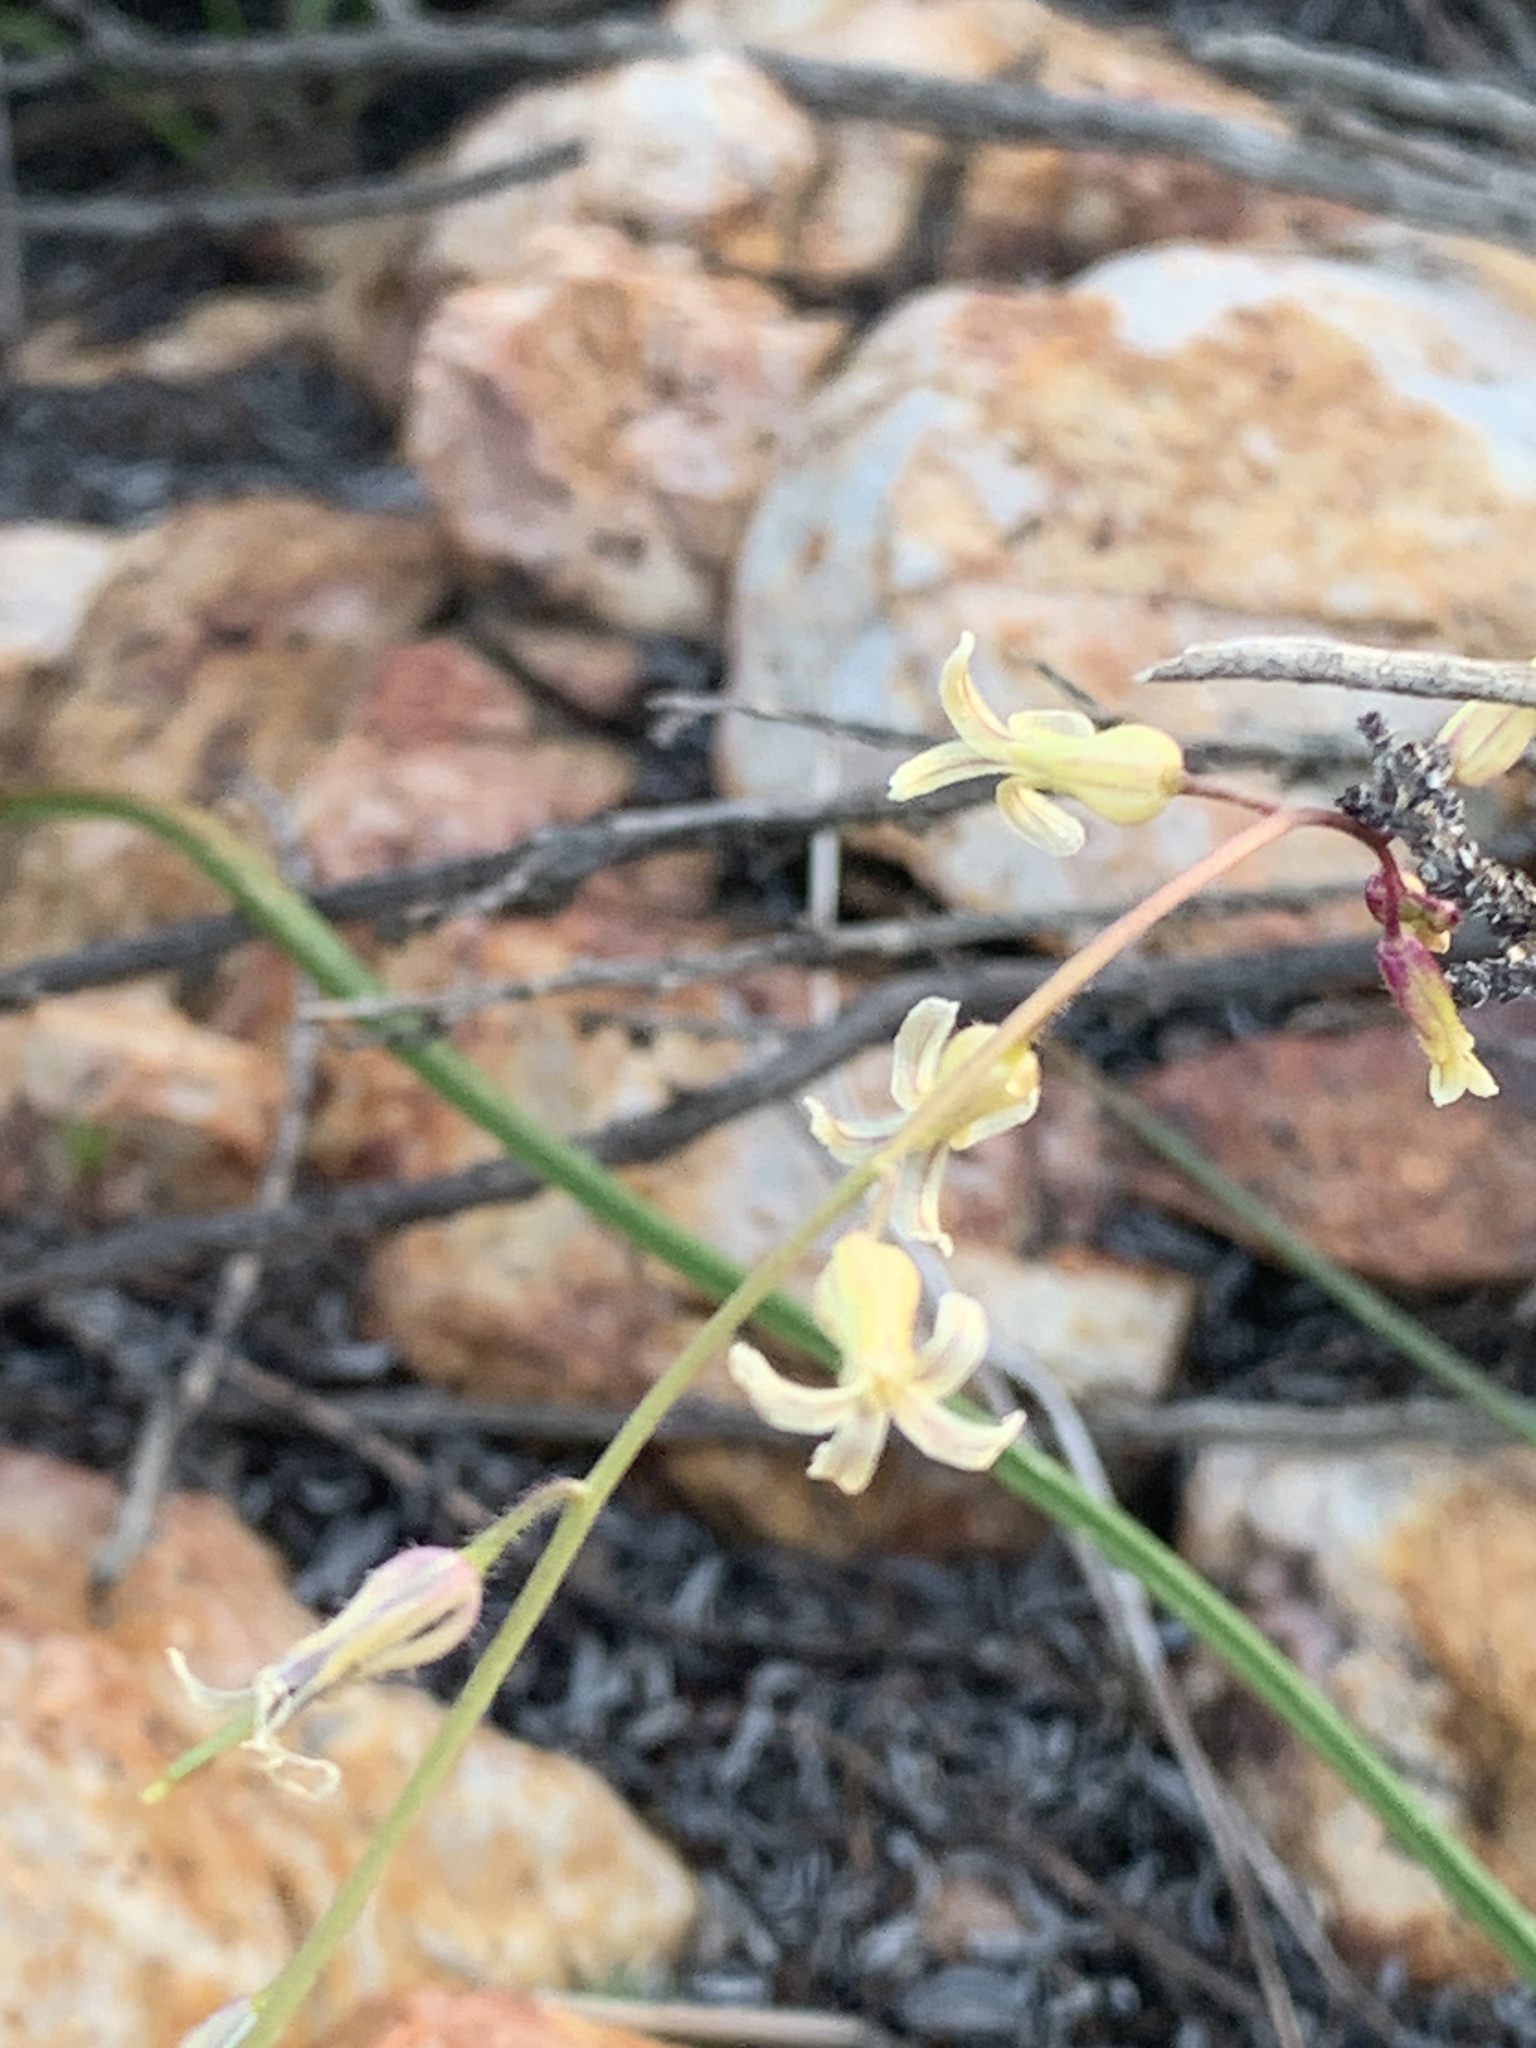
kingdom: Plantae
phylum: Tracheophyta
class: Magnoliopsida
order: Brassicales
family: Brassicaceae
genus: Streptanthus
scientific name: Streptanthus heterophyllus
